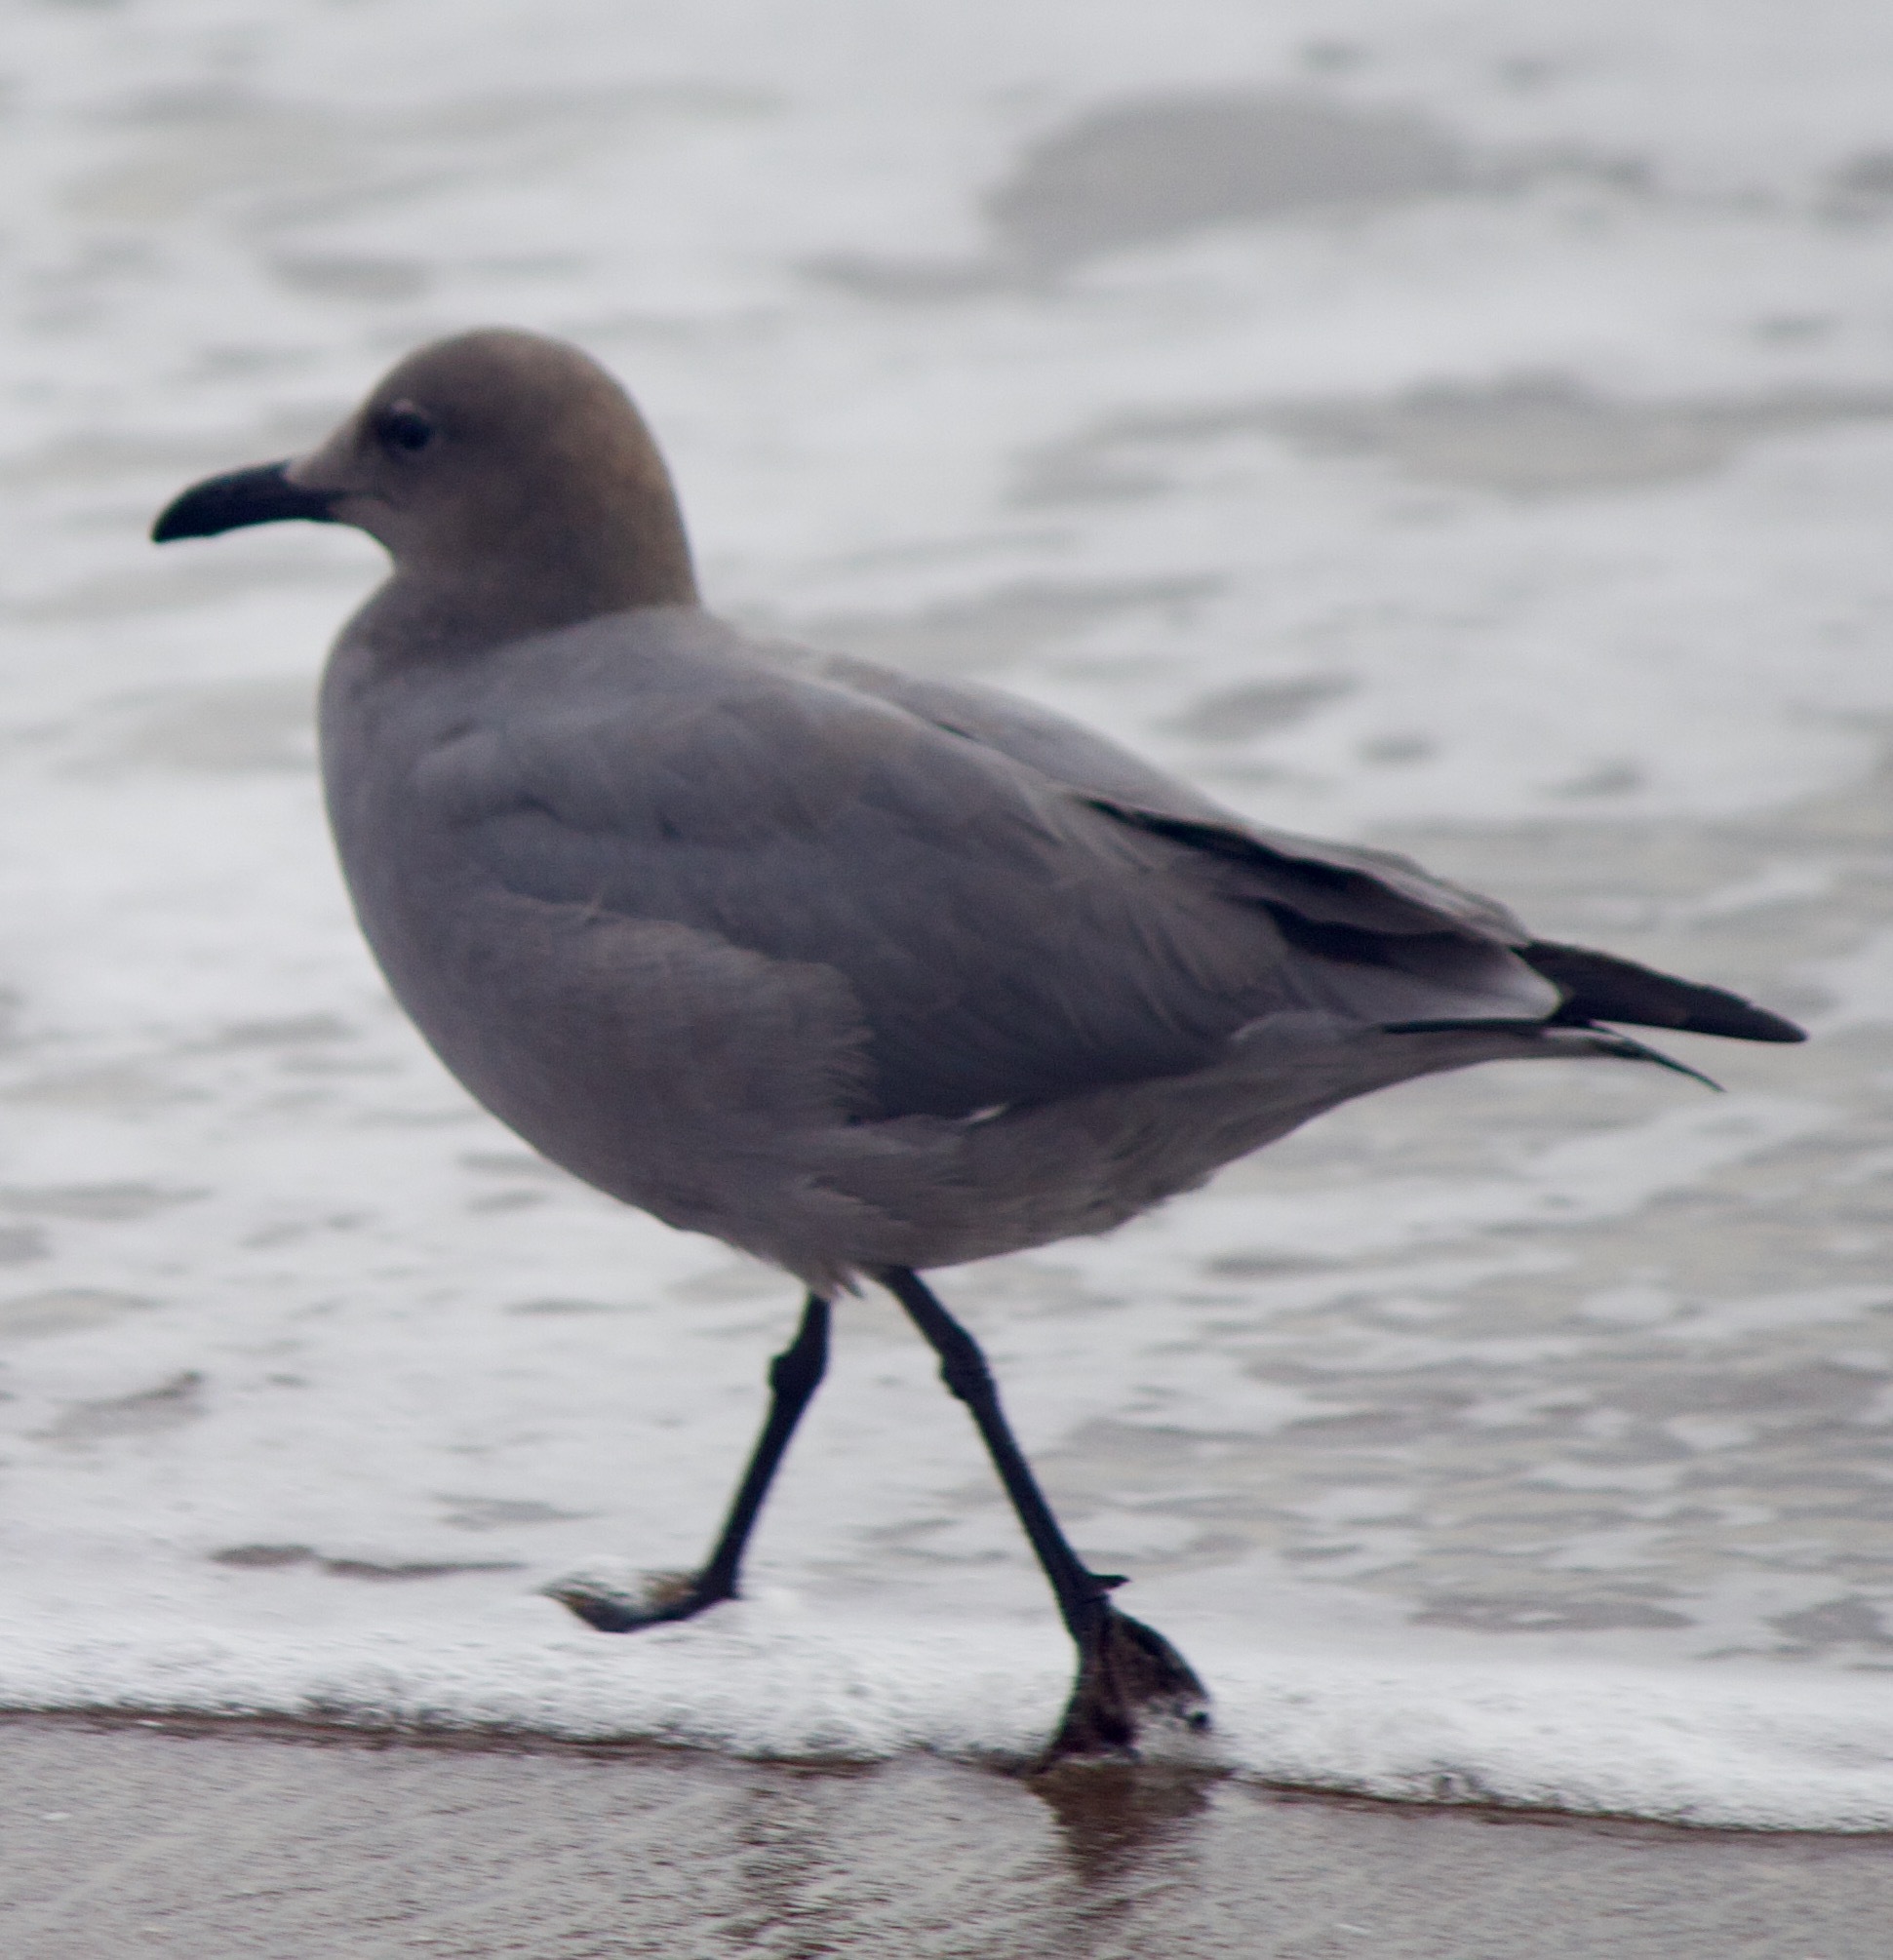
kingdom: Animalia
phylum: Chordata
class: Aves
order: Charadriiformes
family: Laridae
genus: Leucophaeus
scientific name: Leucophaeus modestus
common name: Gray gull
